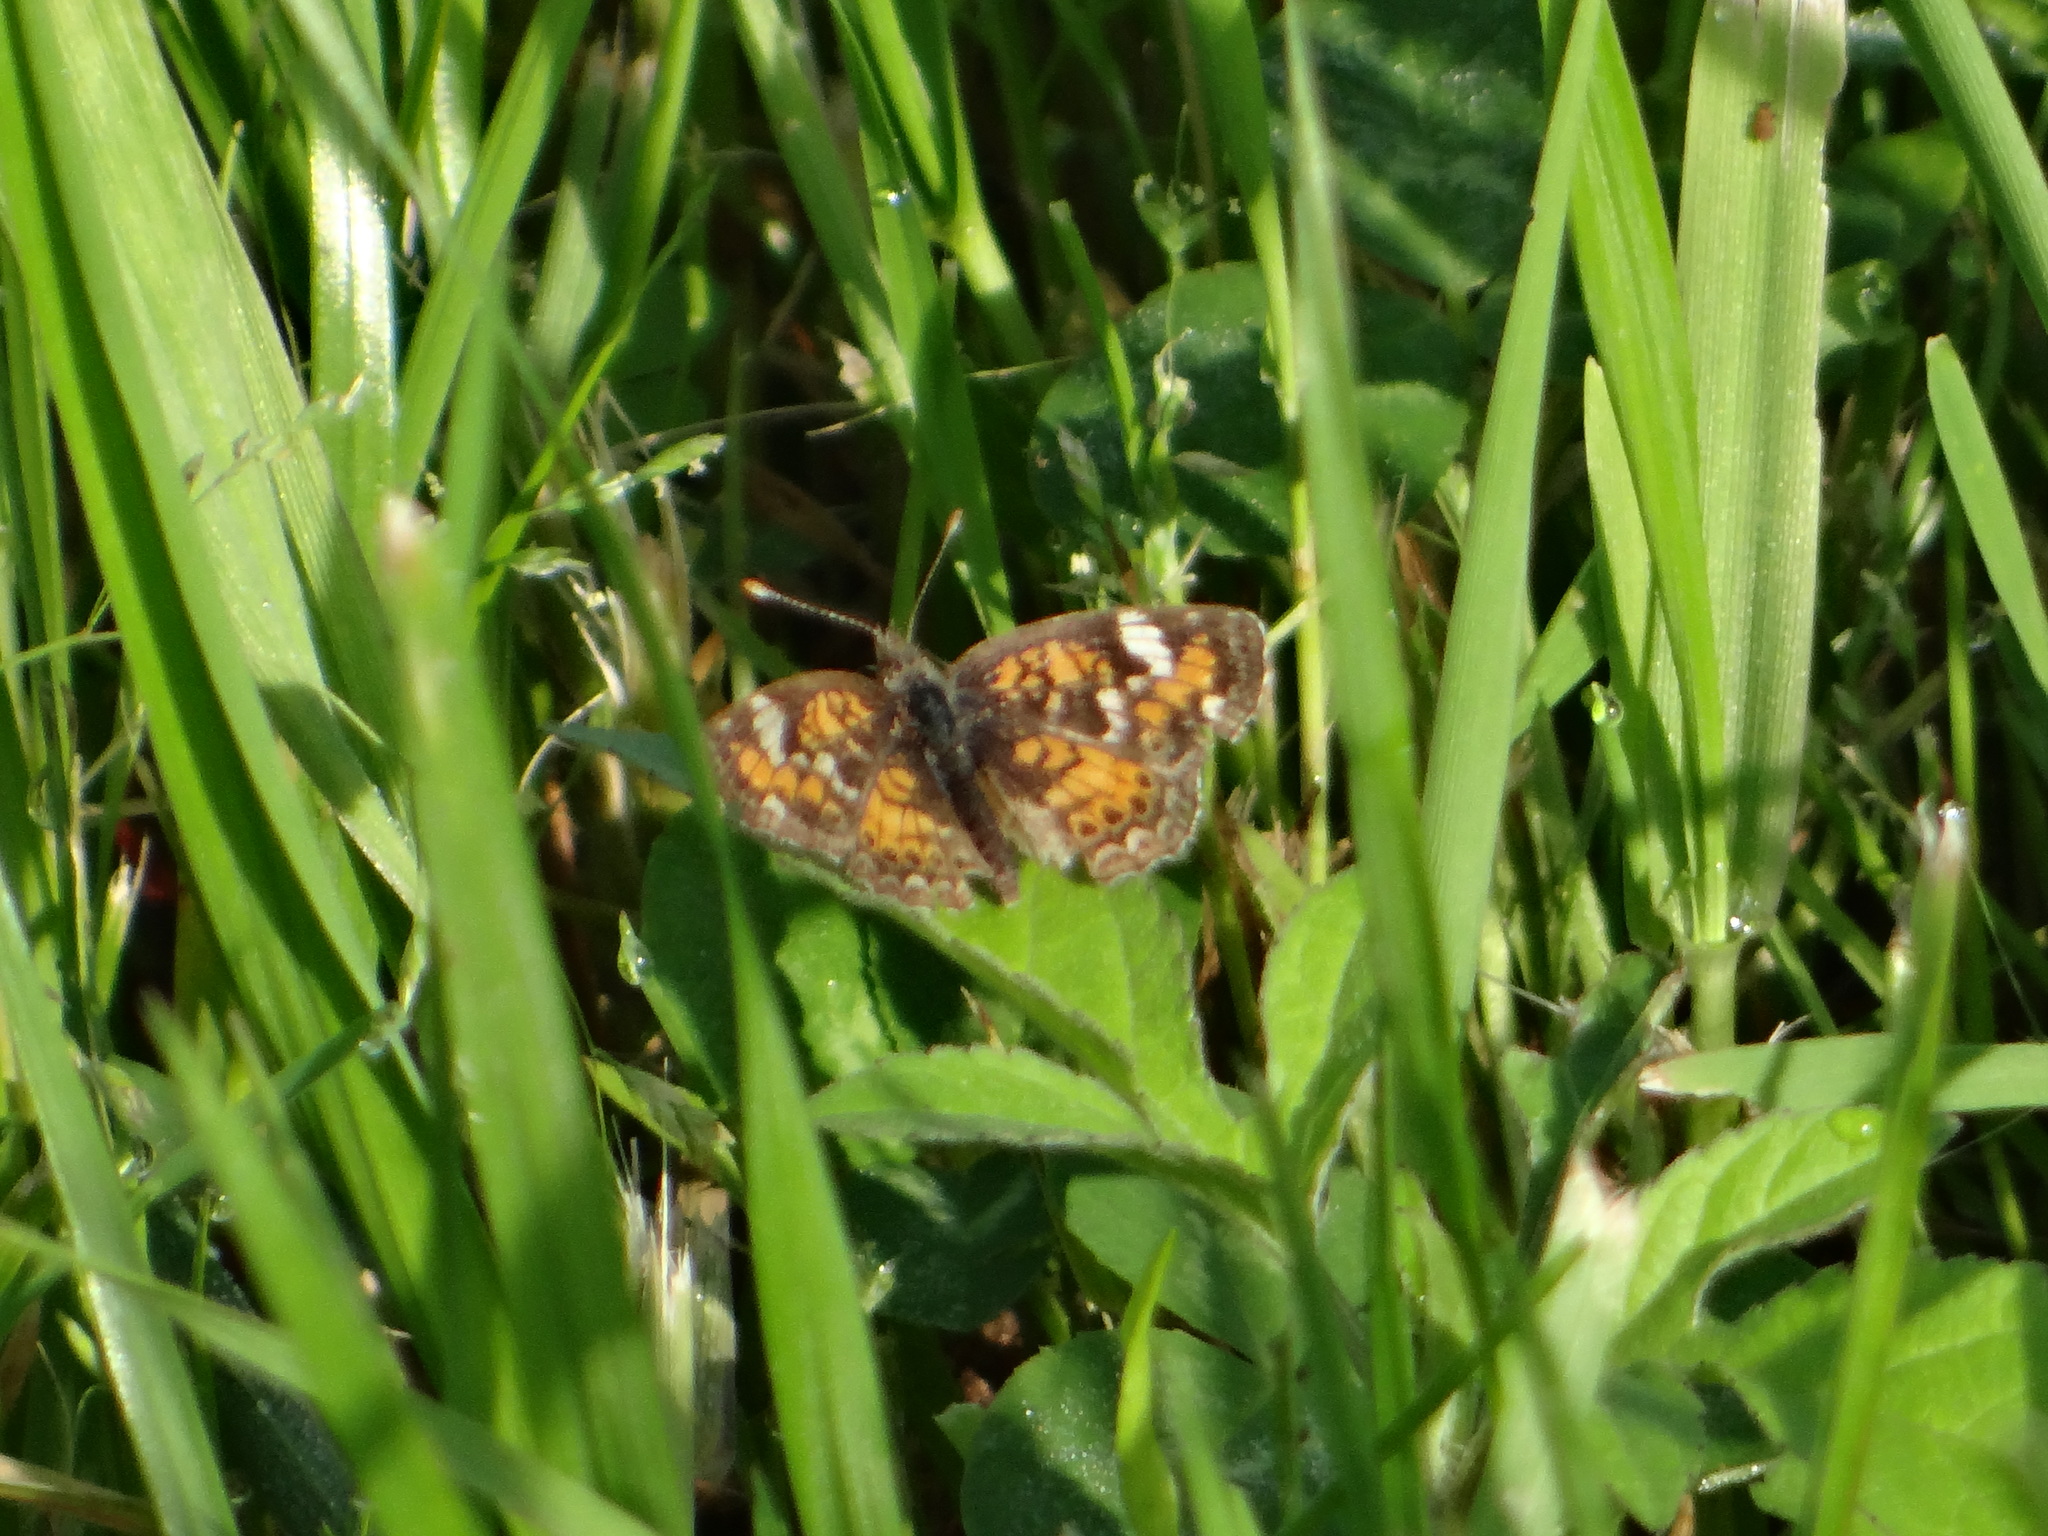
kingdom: Animalia
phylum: Arthropoda
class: Insecta
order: Lepidoptera
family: Nymphalidae
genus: Phyciodes
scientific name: Phyciodes phaon
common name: Phaon crescent
